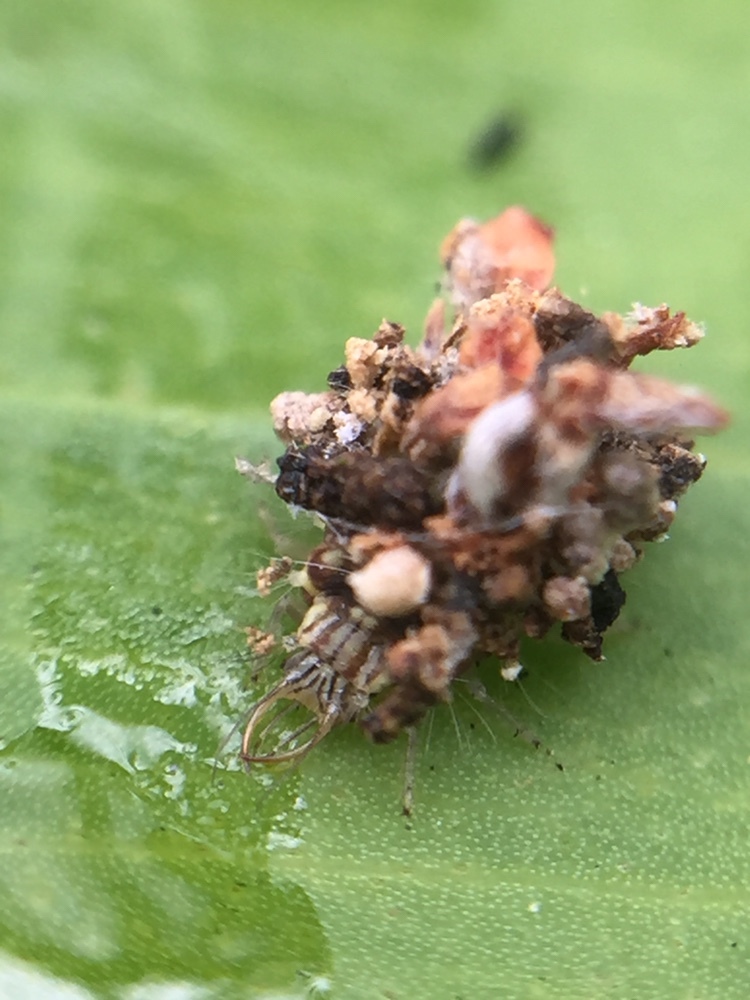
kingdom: Animalia
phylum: Arthropoda
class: Insecta
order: Neuroptera
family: Chrysopidae
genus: Mallada
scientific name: Mallada basalis
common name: Green lacewing
